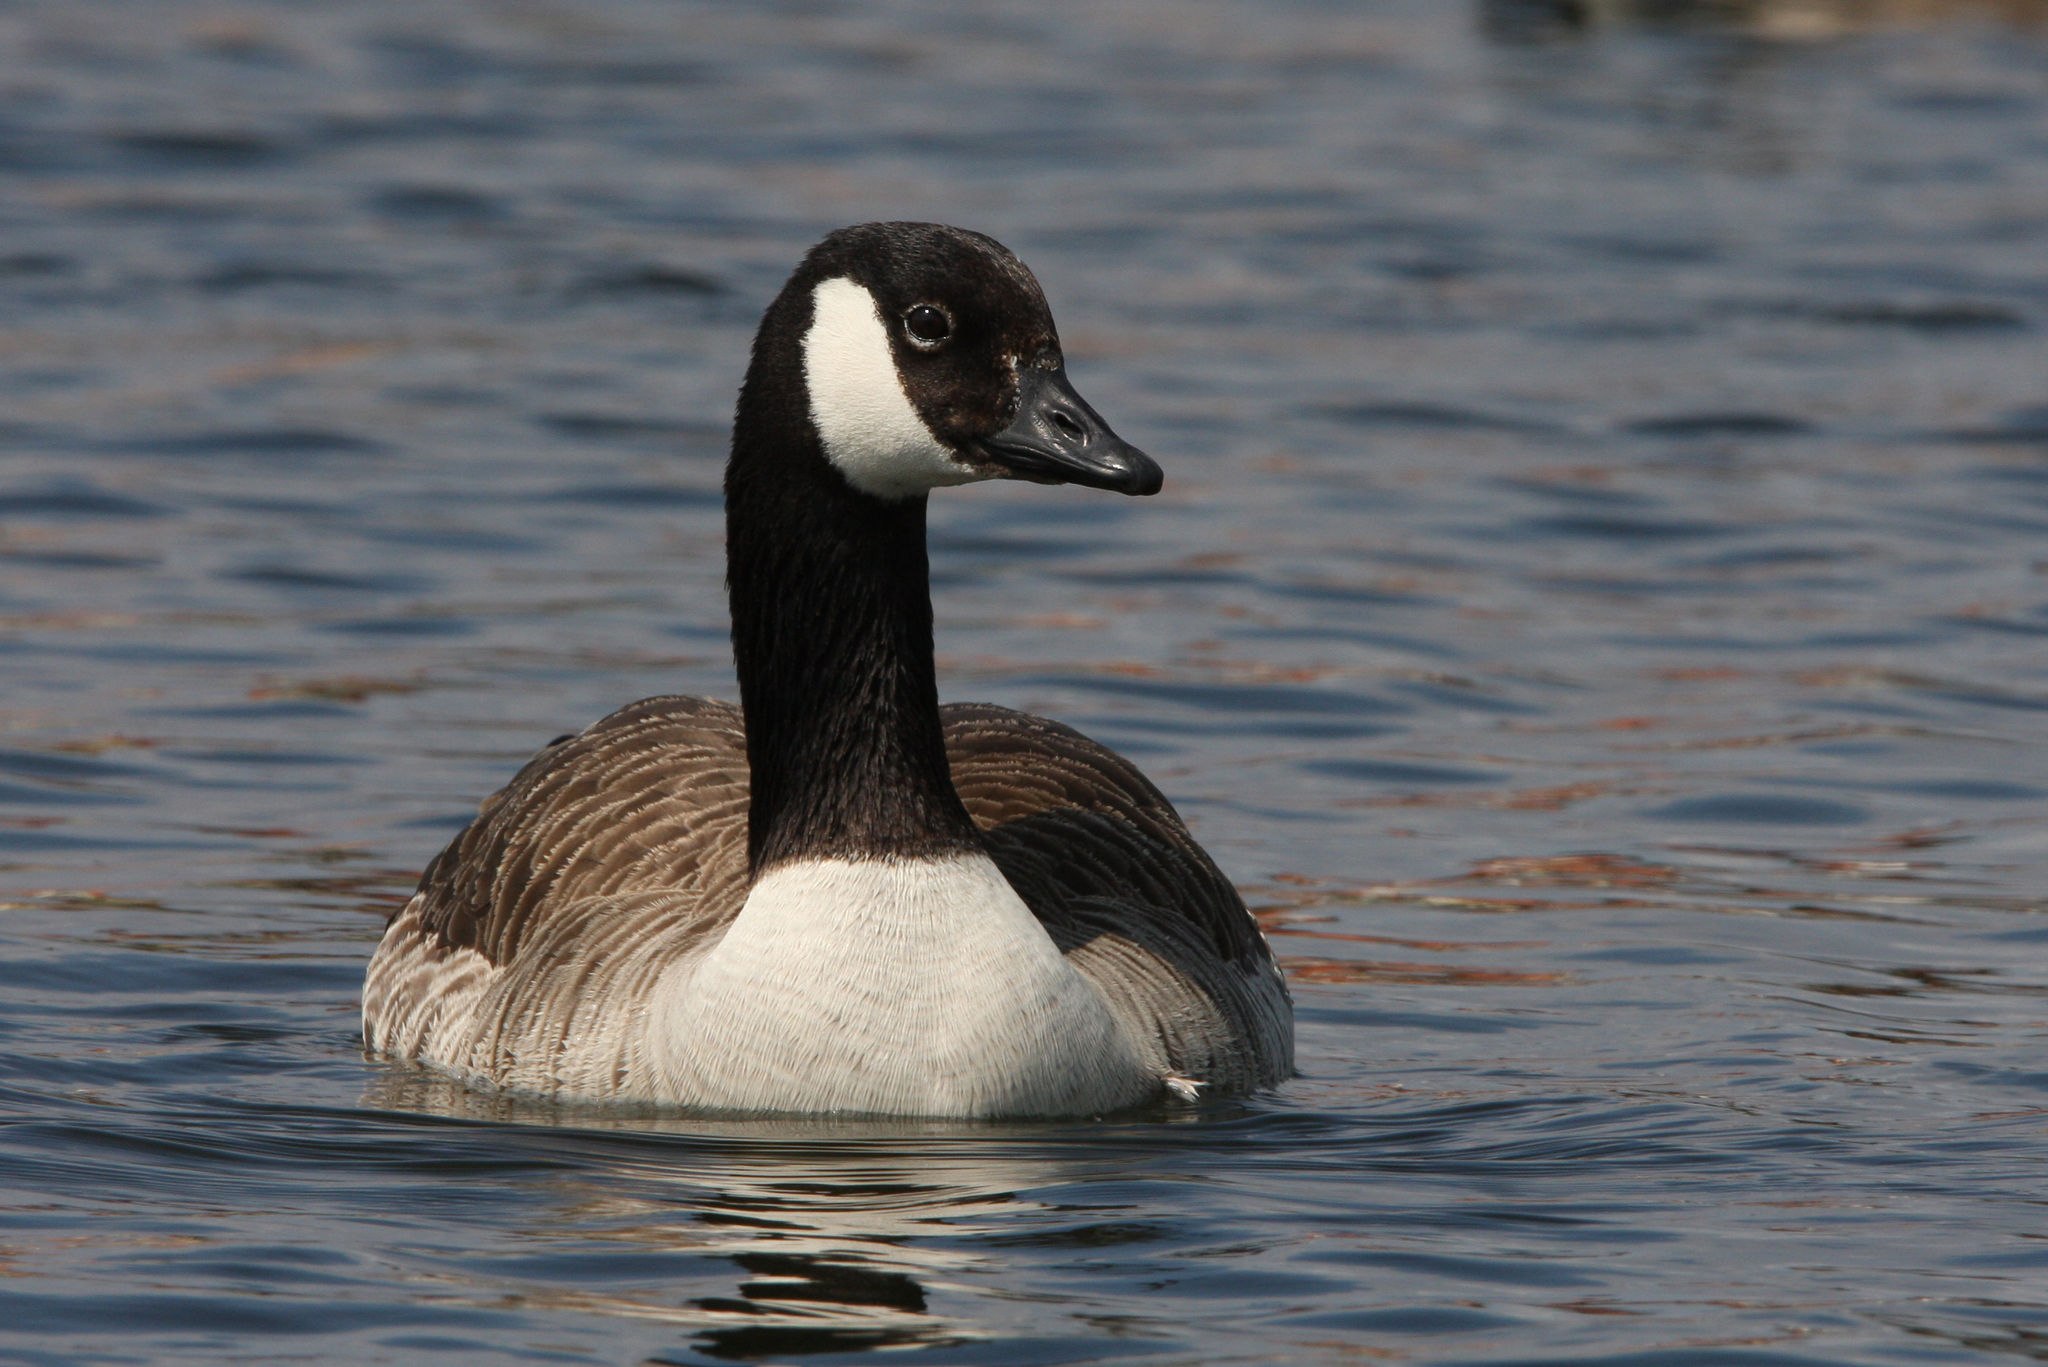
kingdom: Animalia
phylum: Chordata
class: Aves
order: Anseriformes
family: Anatidae
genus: Branta
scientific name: Branta canadensis
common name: Canada goose
